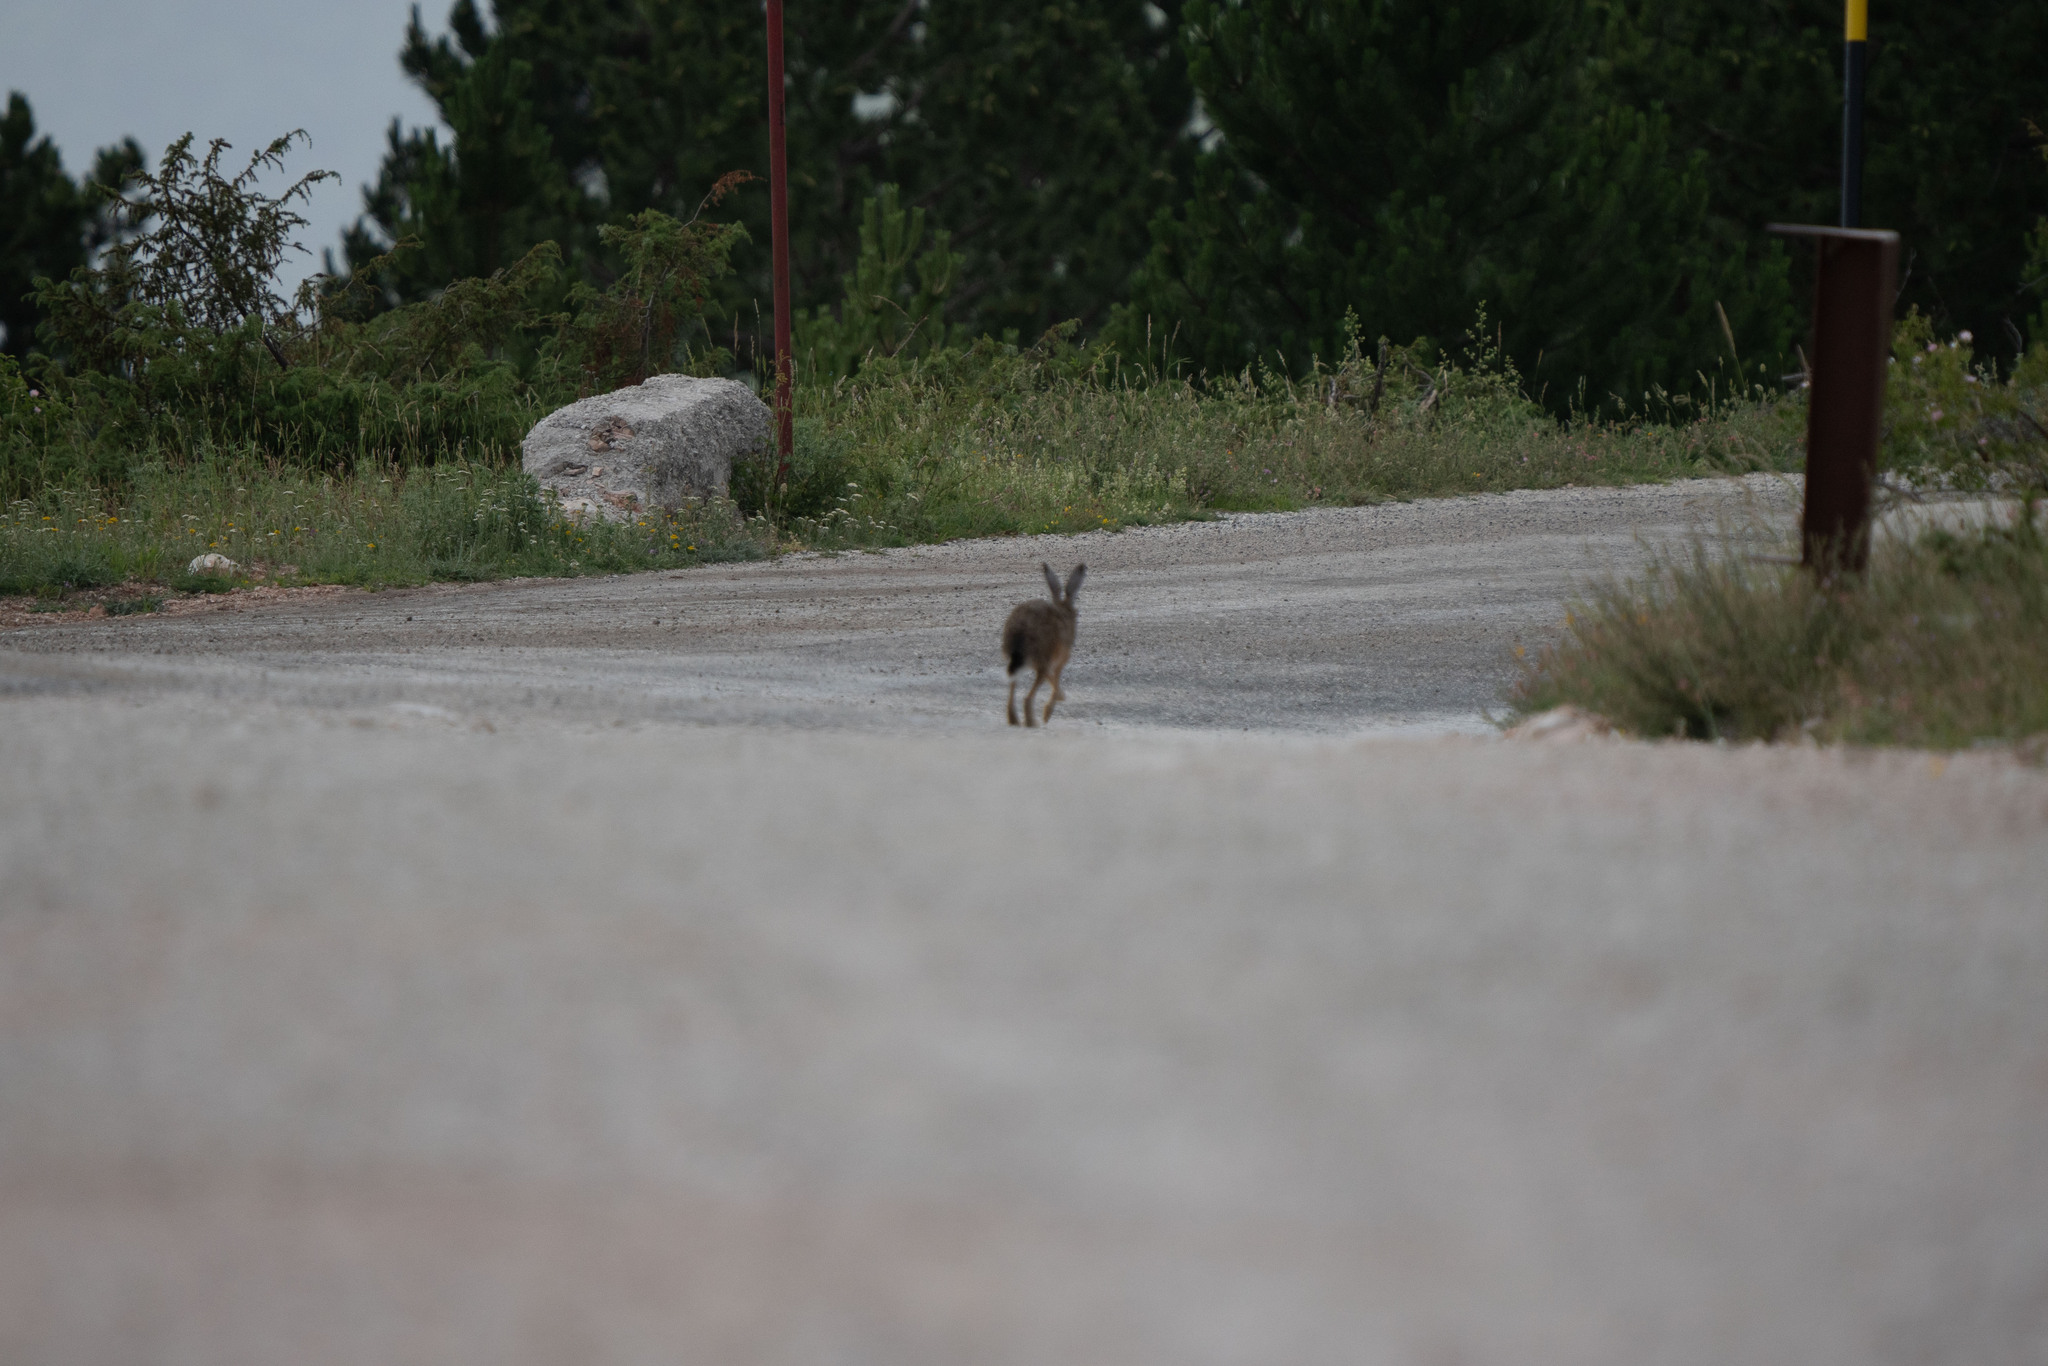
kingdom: Animalia
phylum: Chordata
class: Mammalia
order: Lagomorpha
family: Leporidae
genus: Lepus
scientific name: Lepus europaeus
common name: European hare
